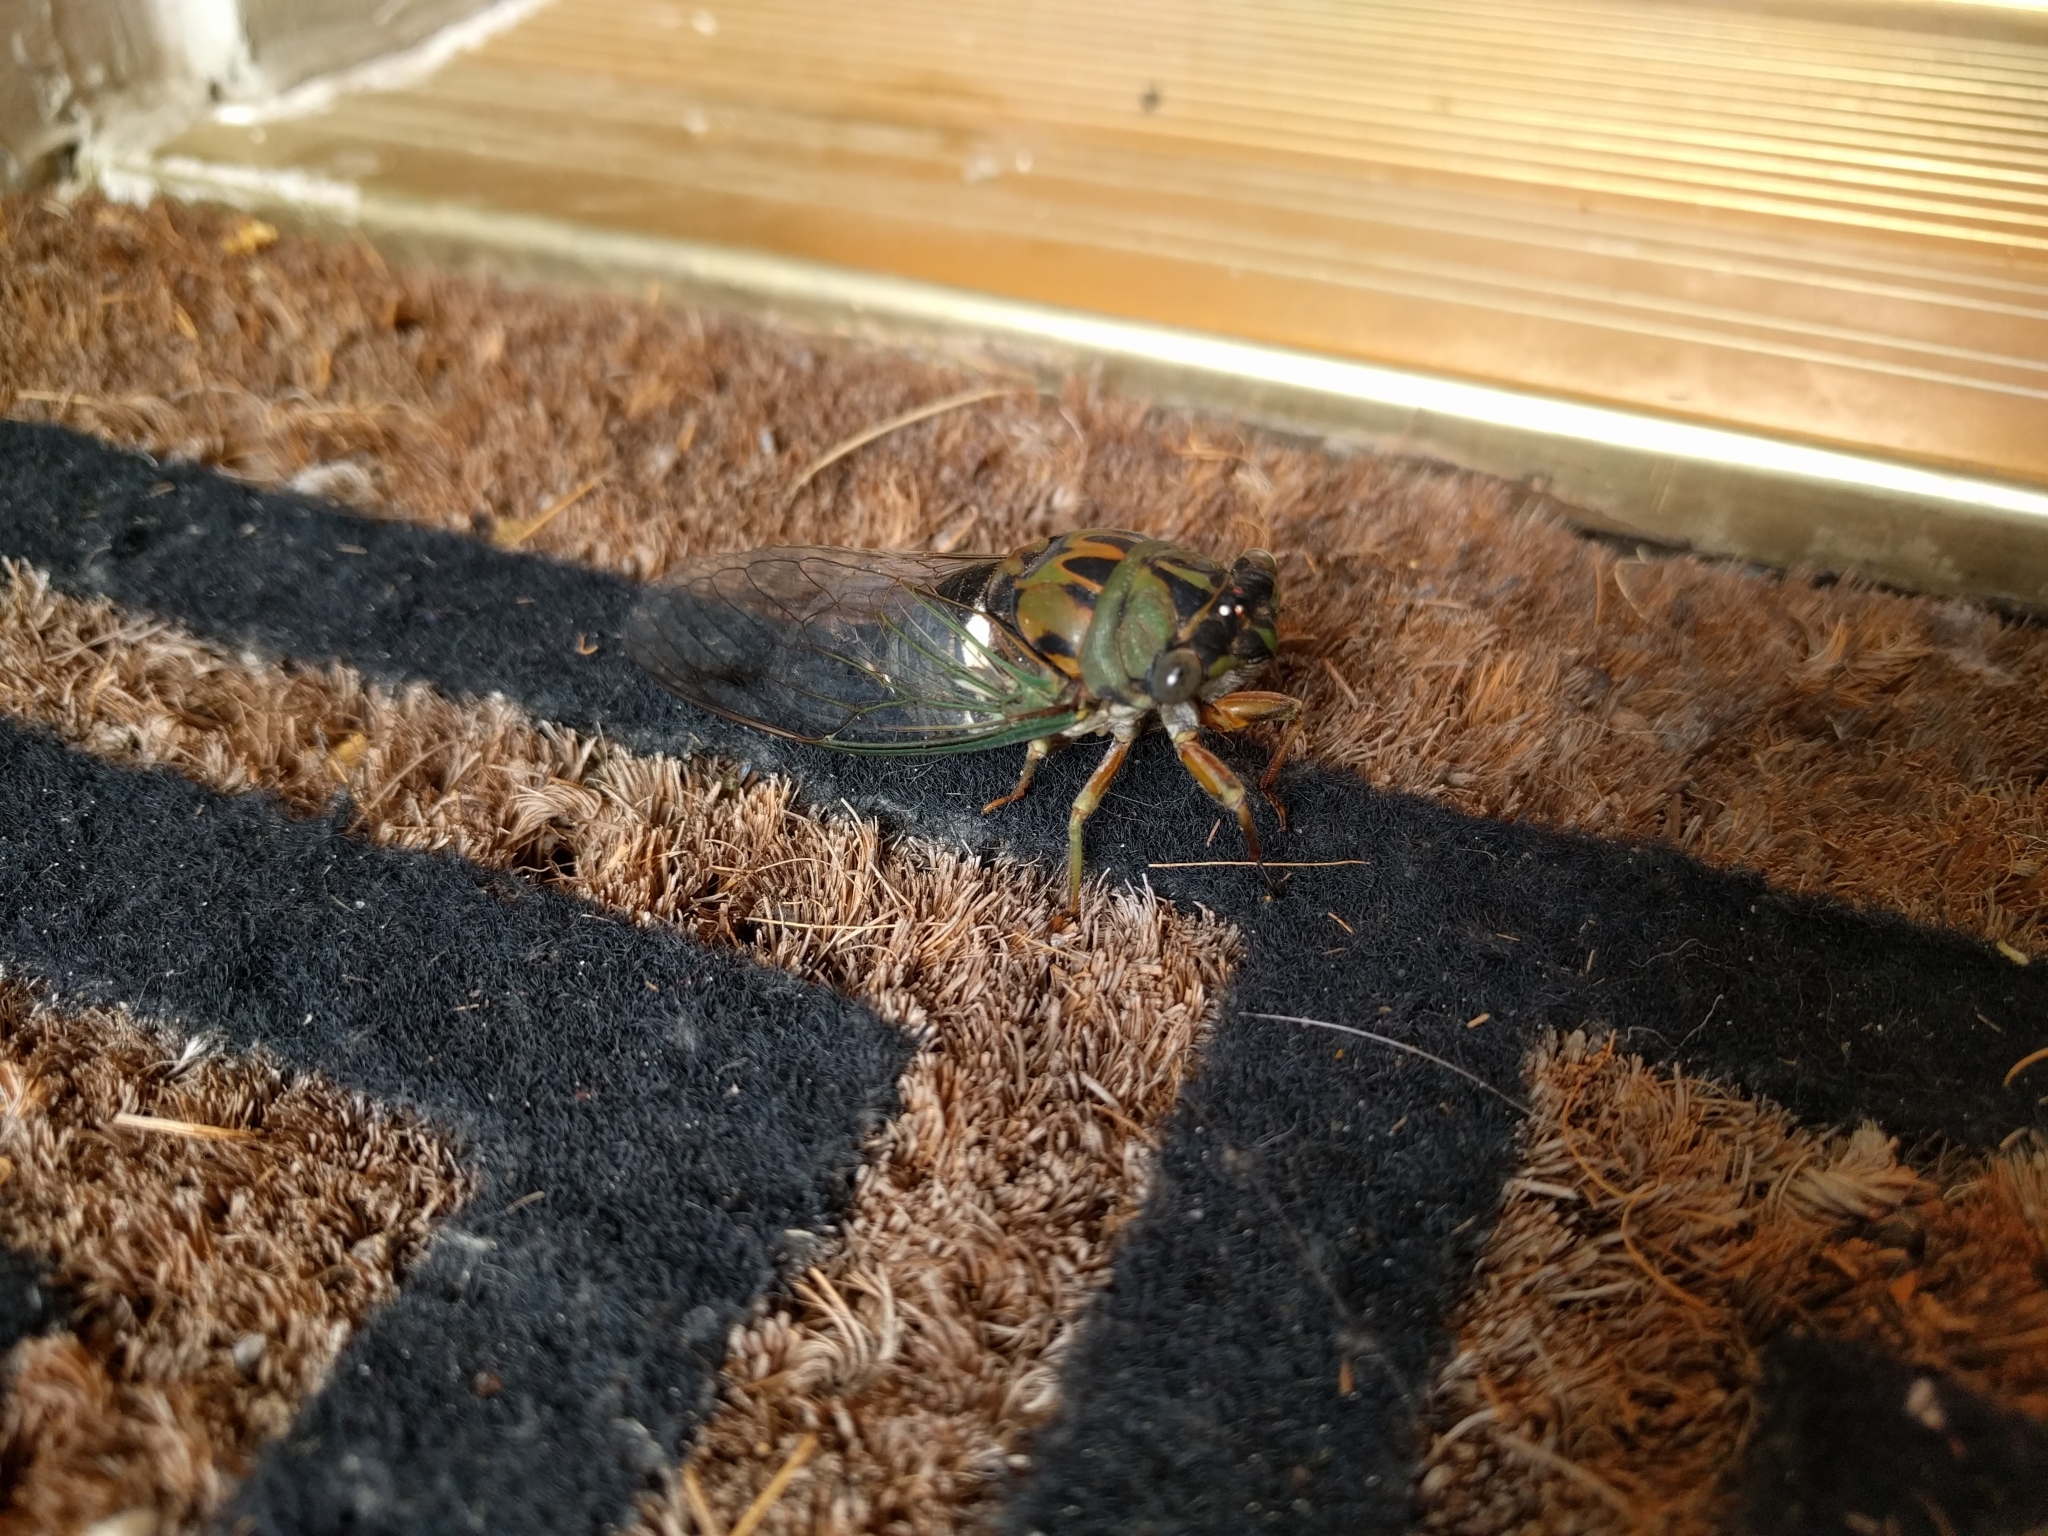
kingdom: Animalia
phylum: Arthropoda
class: Insecta
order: Hemiptera
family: Cicadidae
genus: Neotibicen
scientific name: Neotibicen pruinosus
